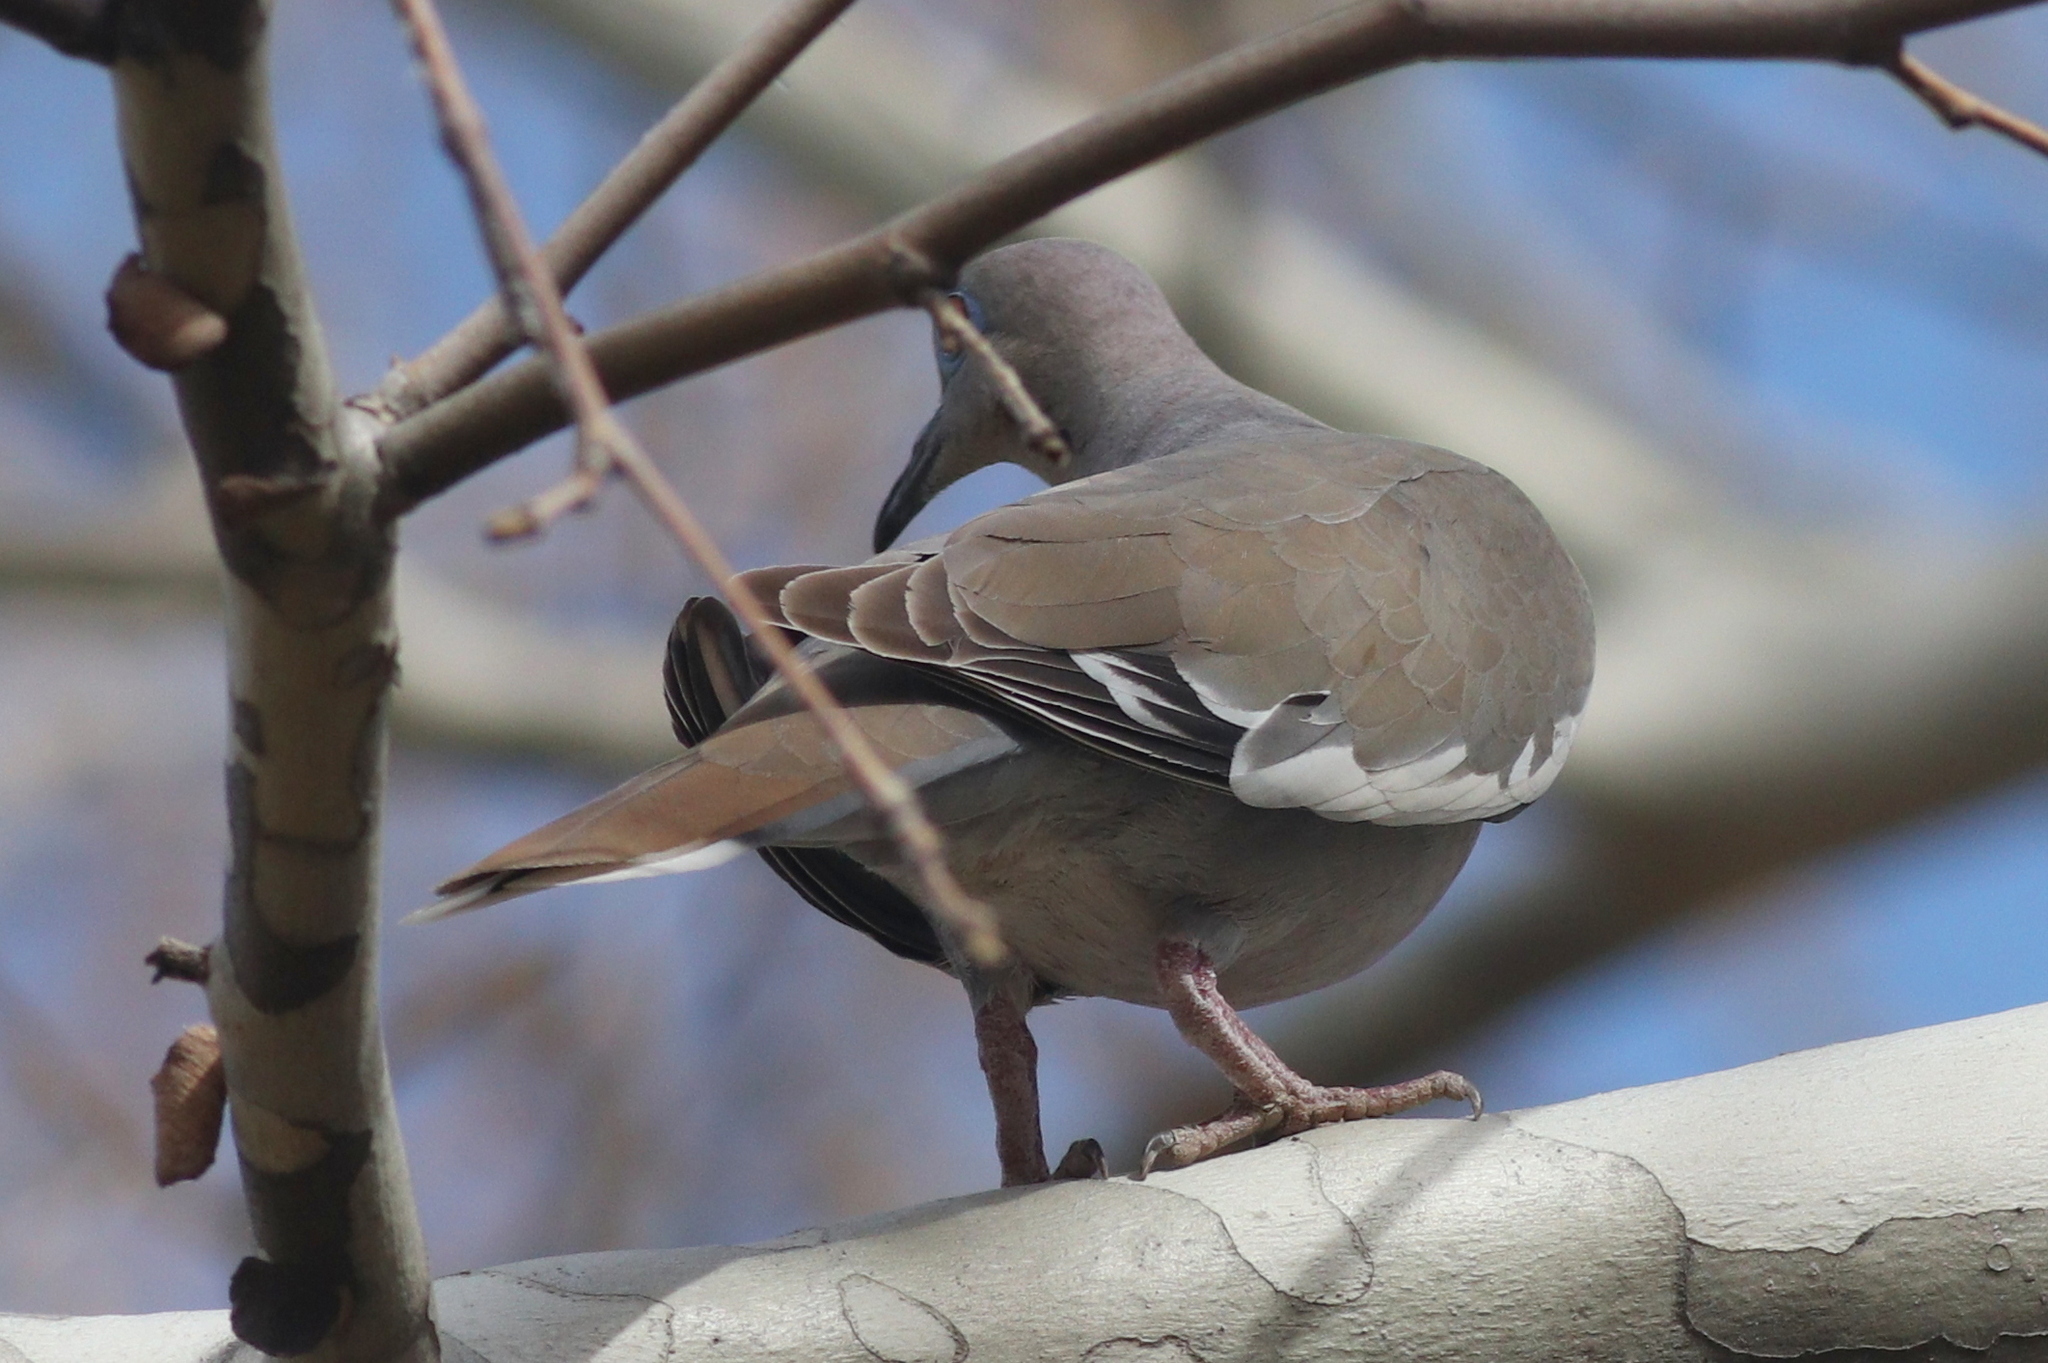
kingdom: Animalia
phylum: Chordata
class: Aves
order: Columbiformes
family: Columbidae
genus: Zenaida
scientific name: Zenaida asiatica
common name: White-winged dove
